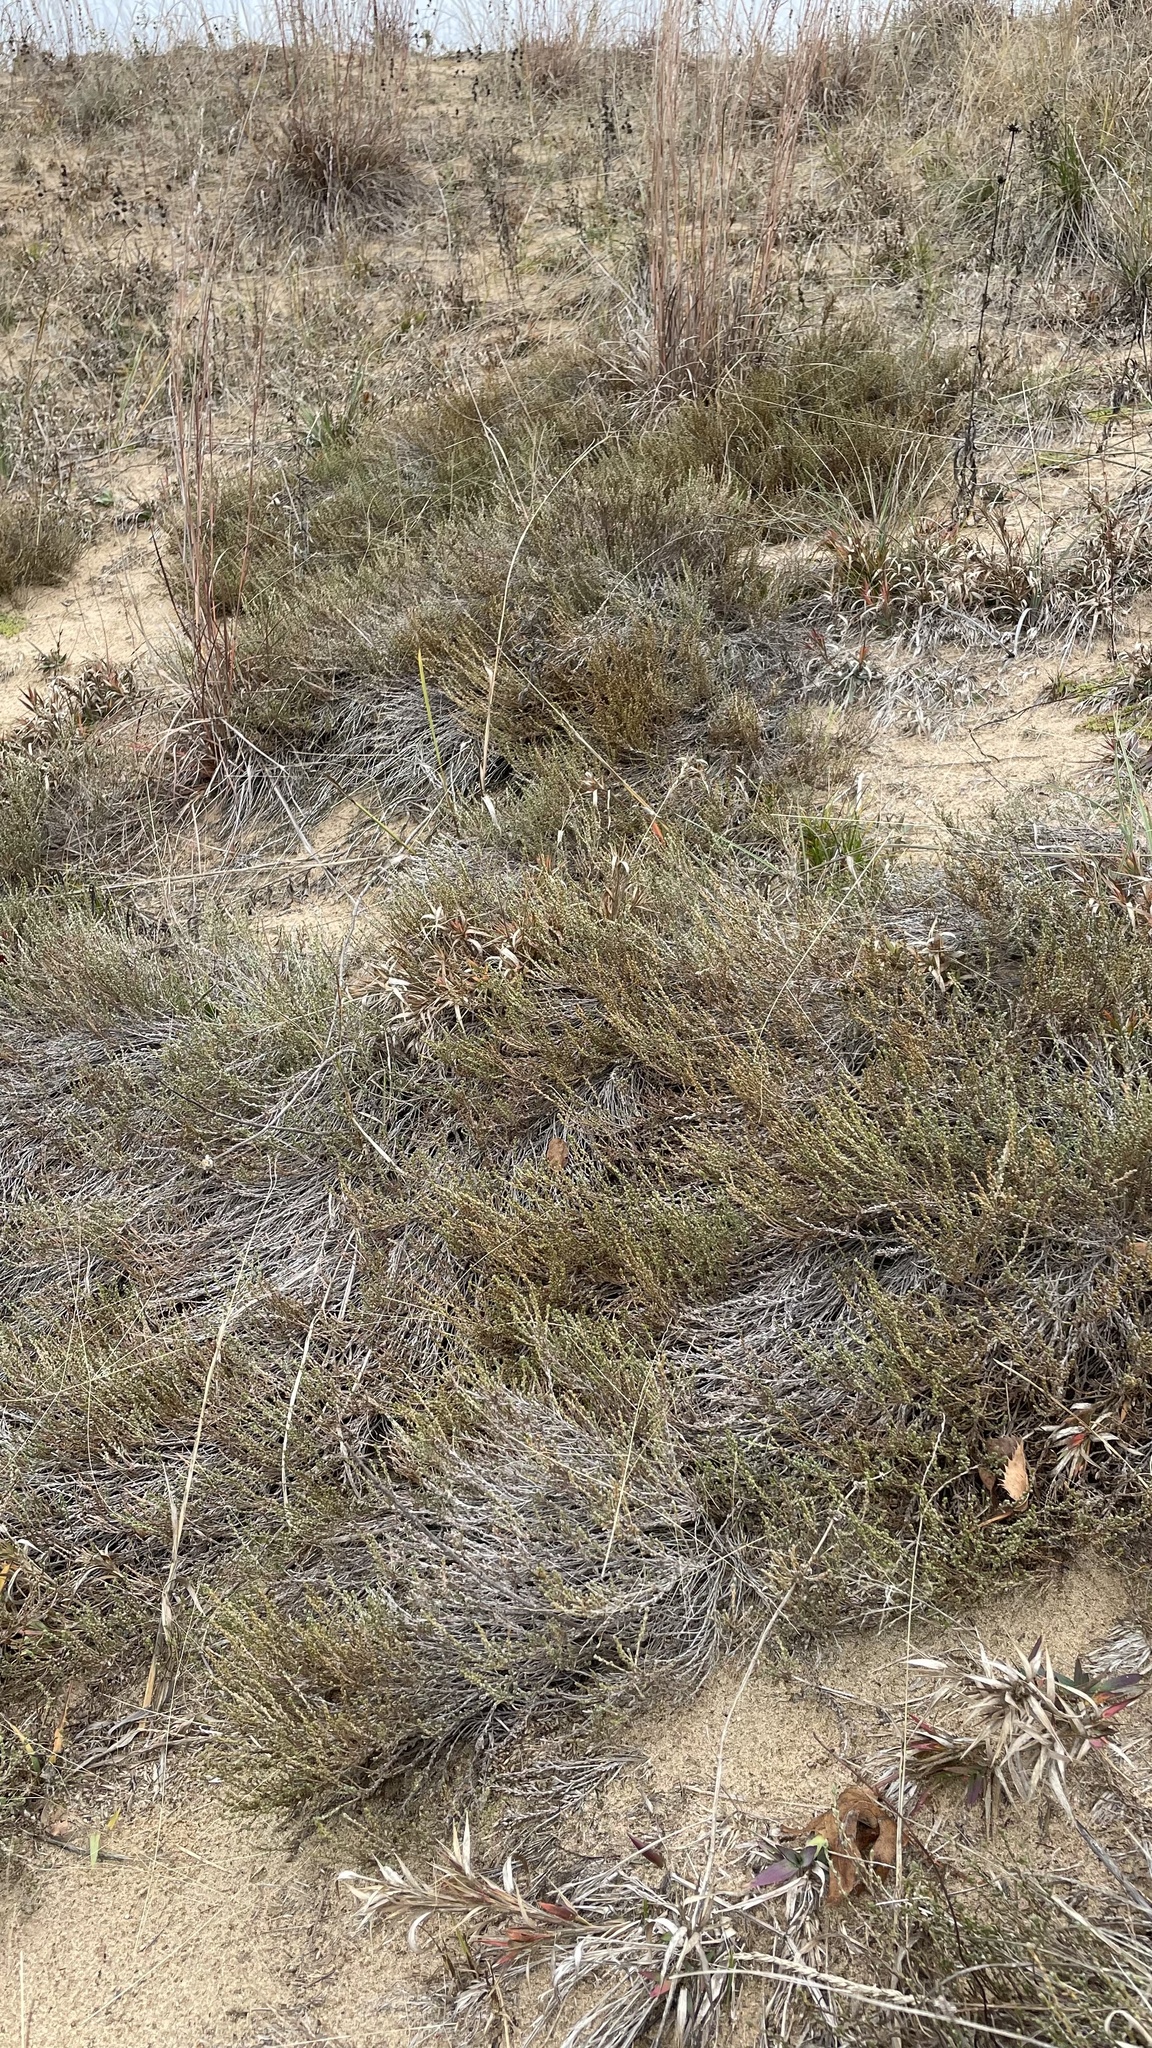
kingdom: Plantae
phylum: Tracheophyta
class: Magnoliopsida
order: Malvales
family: Cistaceae
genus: Hudsonia
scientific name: Hudsonia tomentosa
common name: Beach-heath
